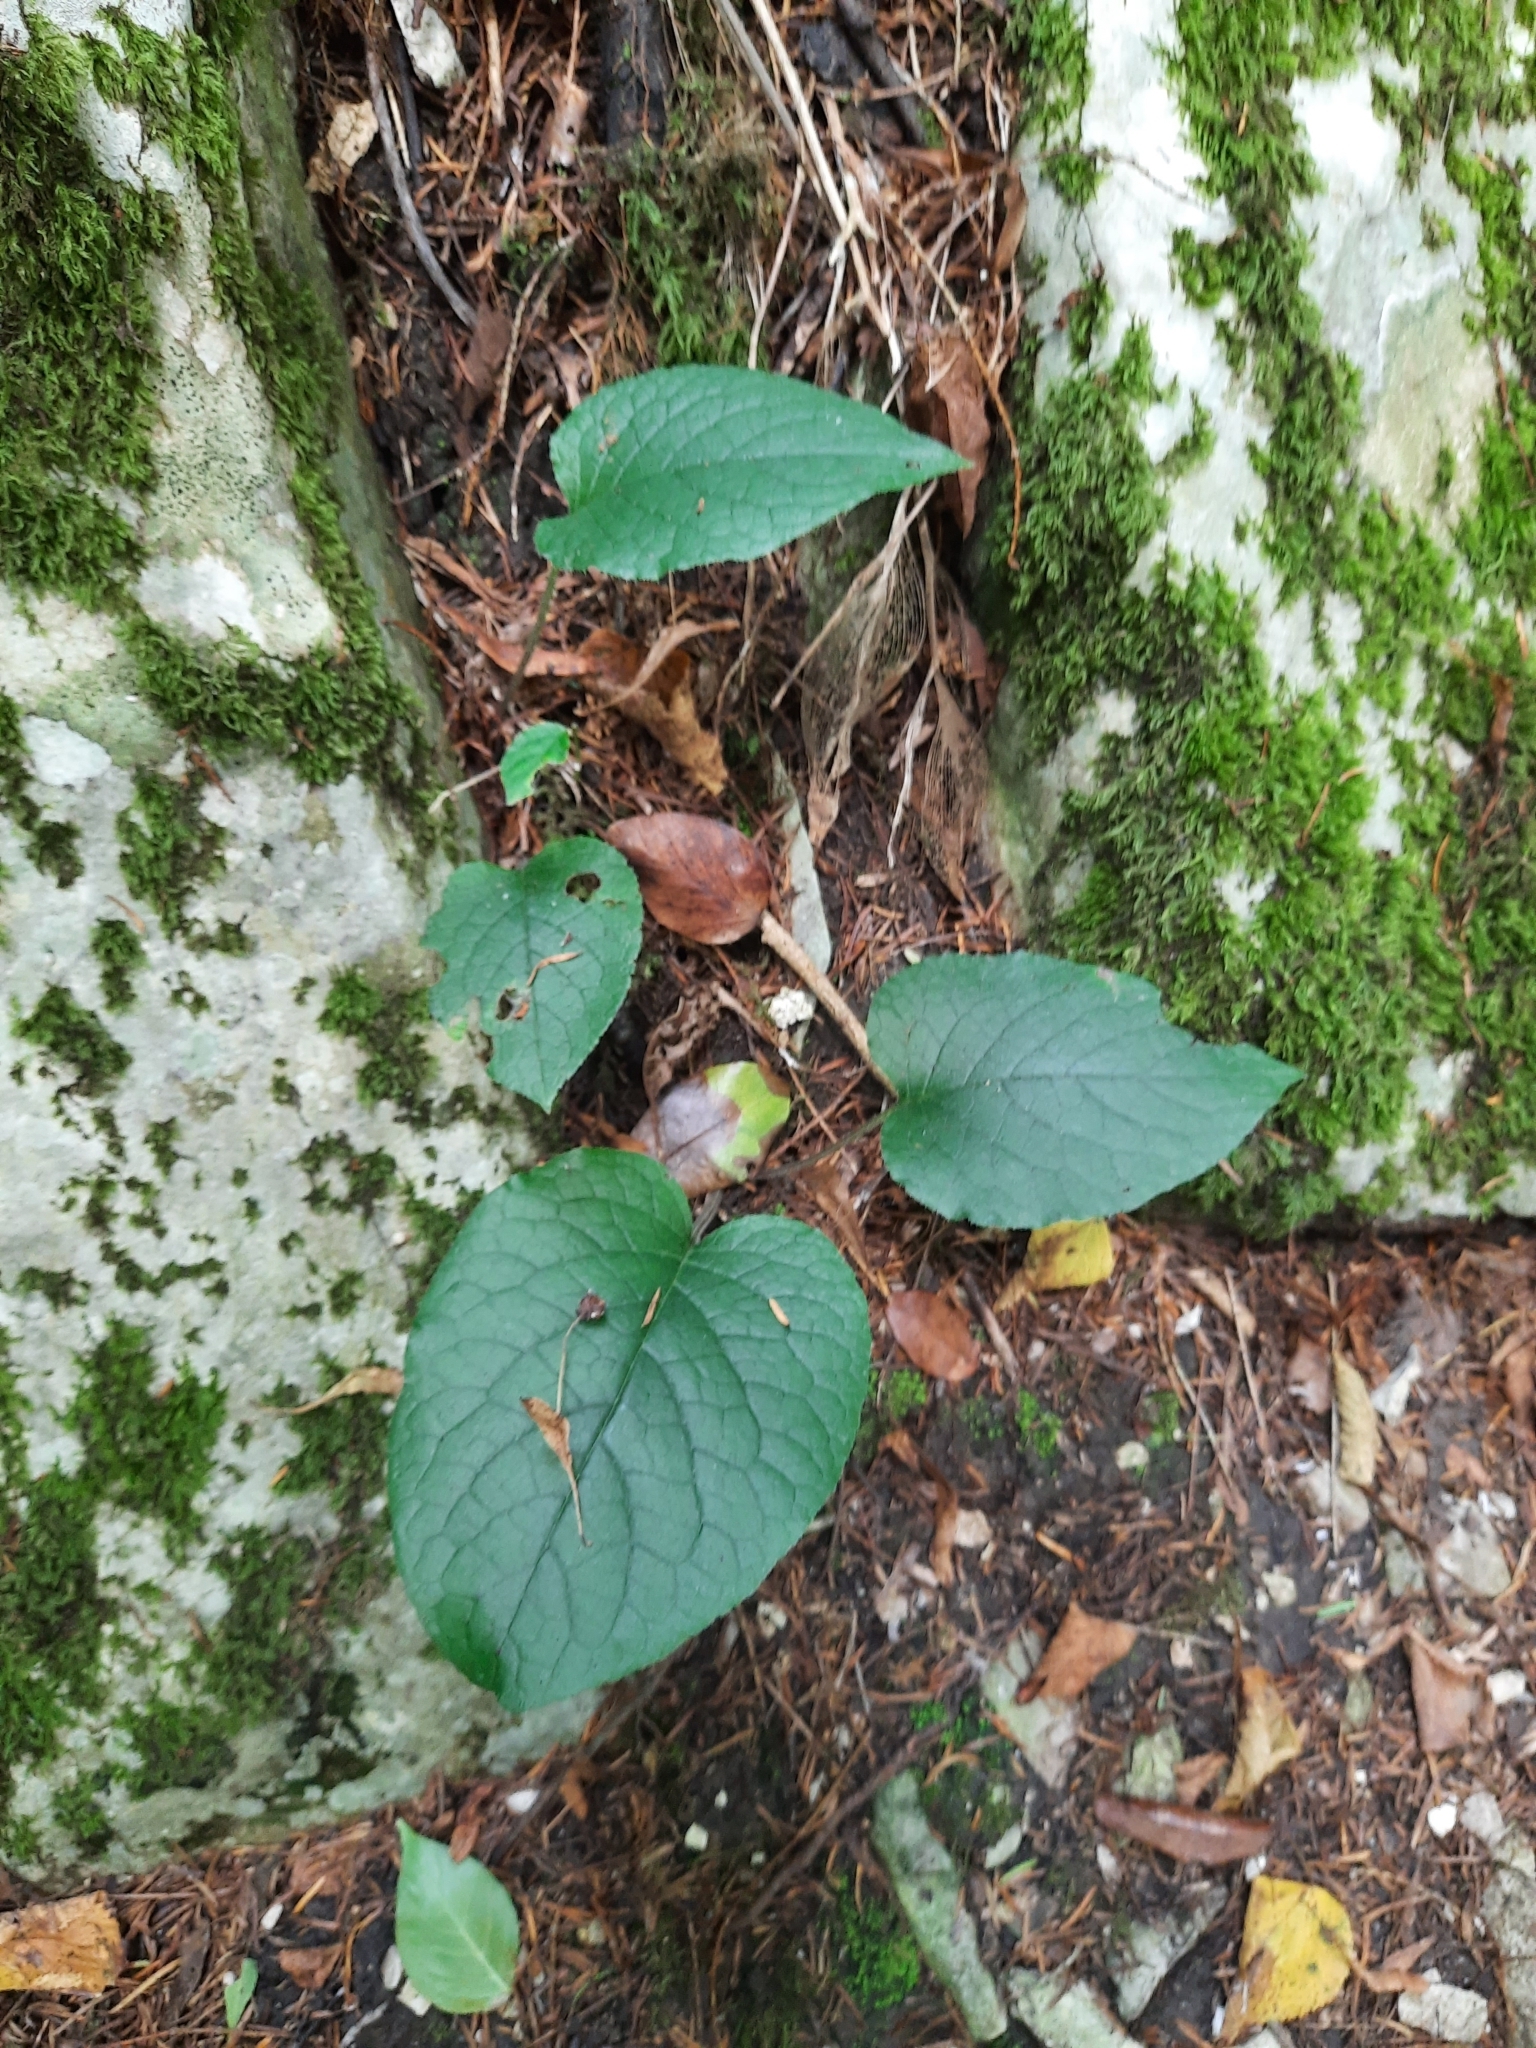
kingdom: Plantae
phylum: Tracheophyta
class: Magnoliopsida
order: Boraginales
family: Boraginaceae
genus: Omphalodes
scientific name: Omphalodes cappadocica
